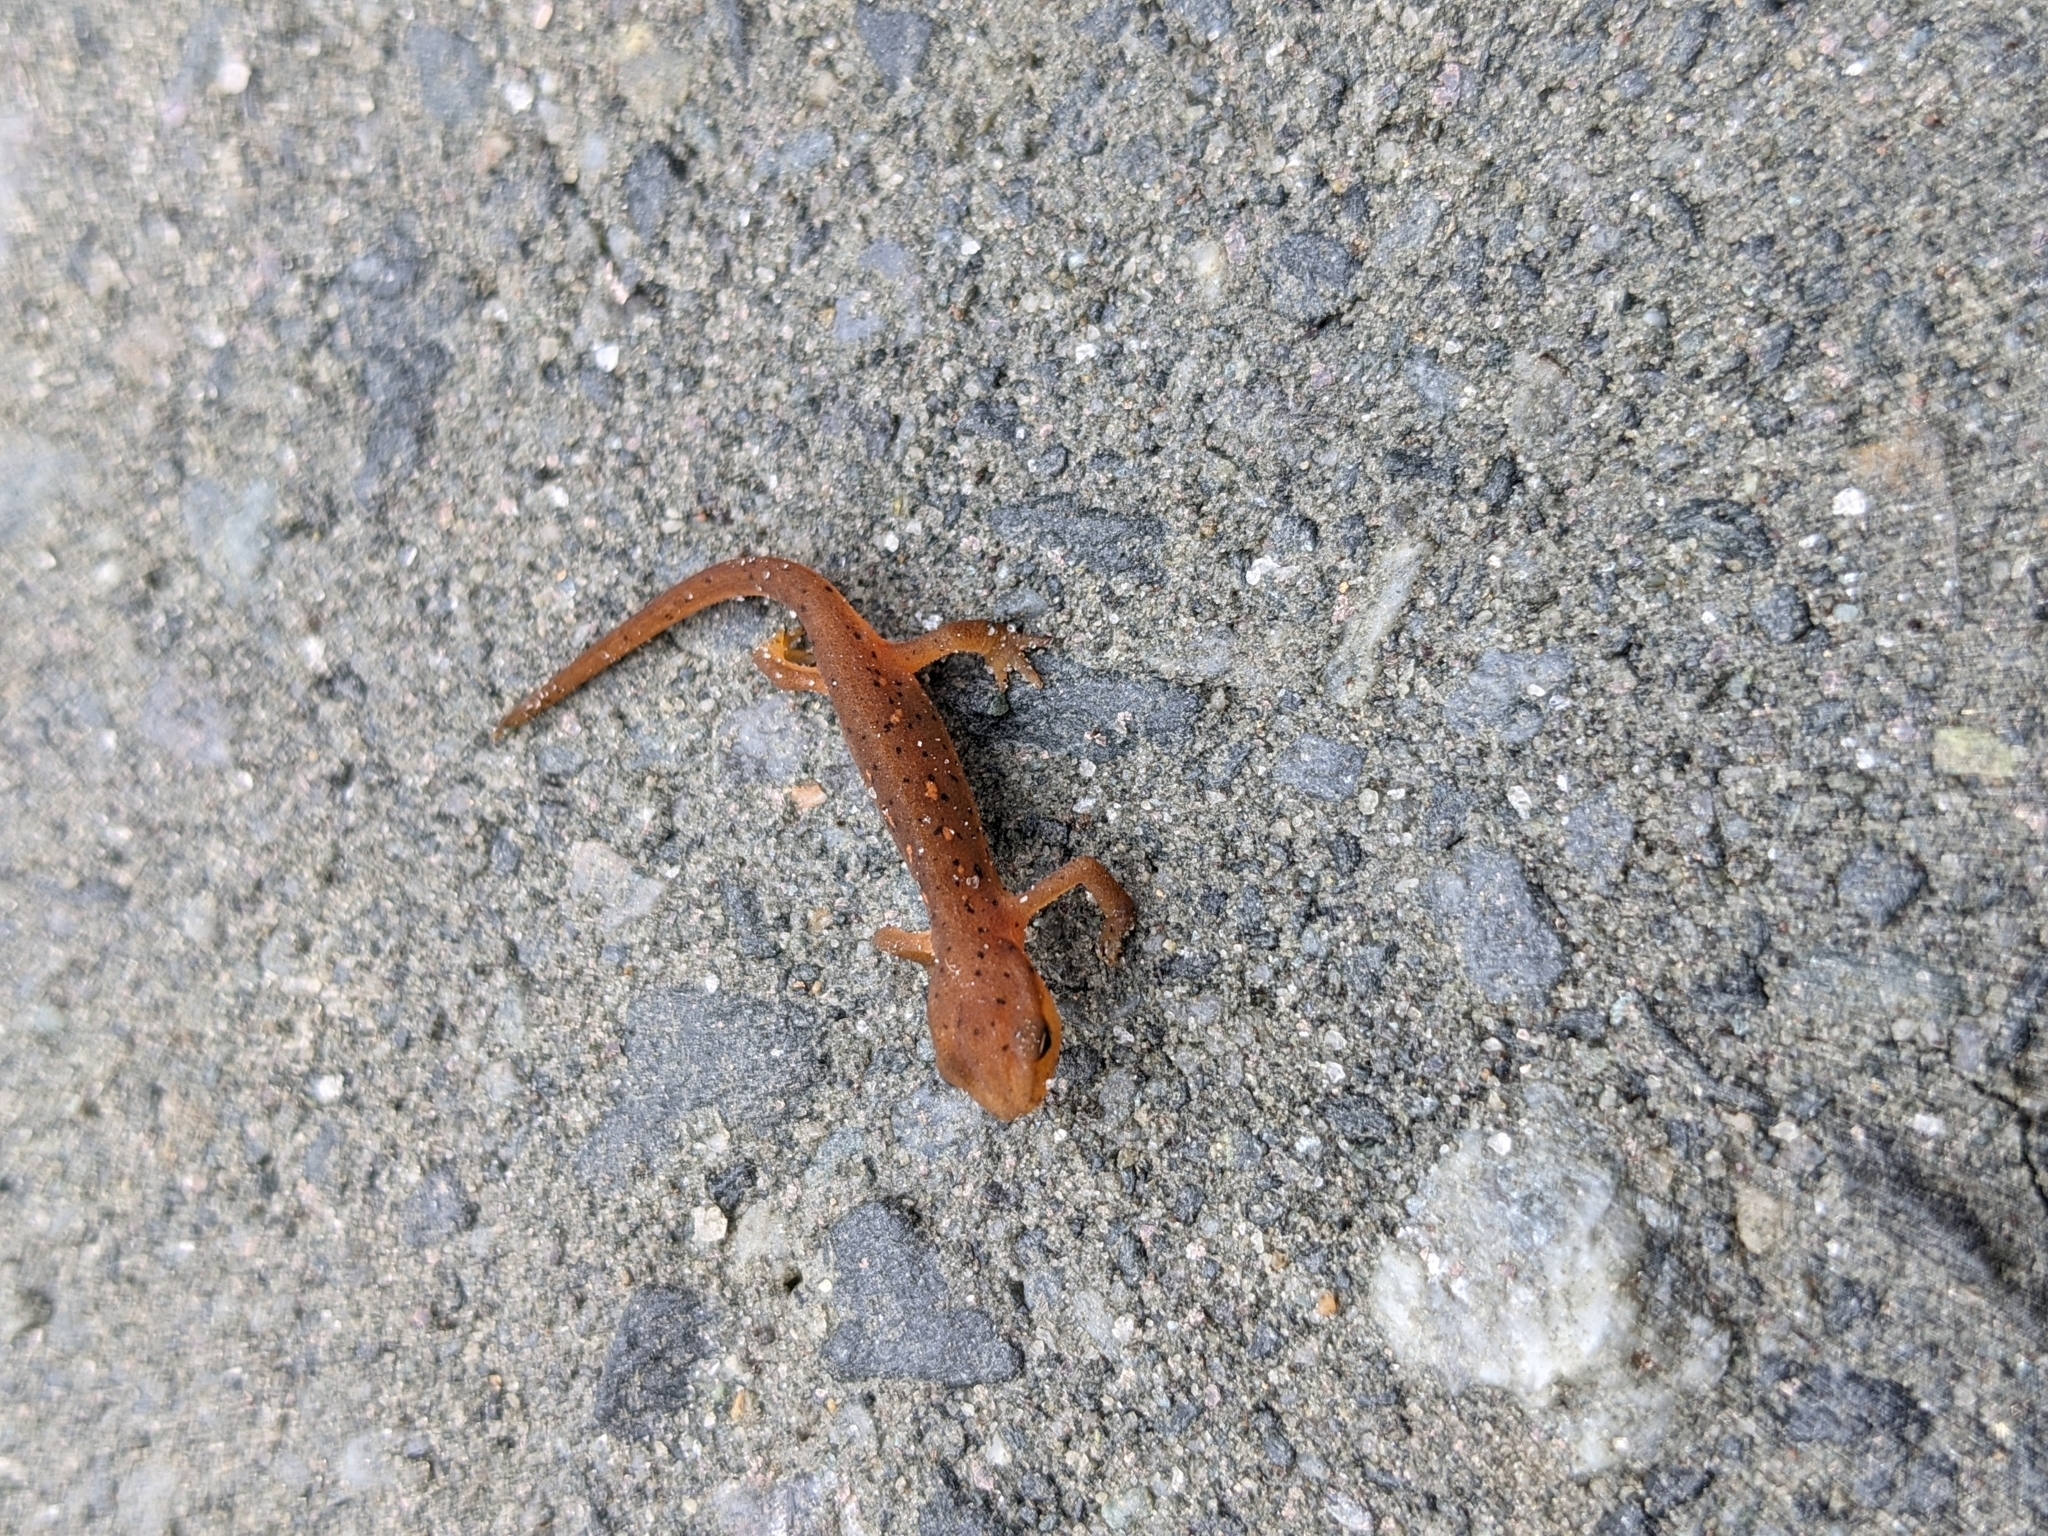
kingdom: Animalia
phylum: Chordata
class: Amphibia
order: Caudata
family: Salamandridae
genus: Notophthalmus
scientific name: Notophthalmus viridescens
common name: Eastern newt
